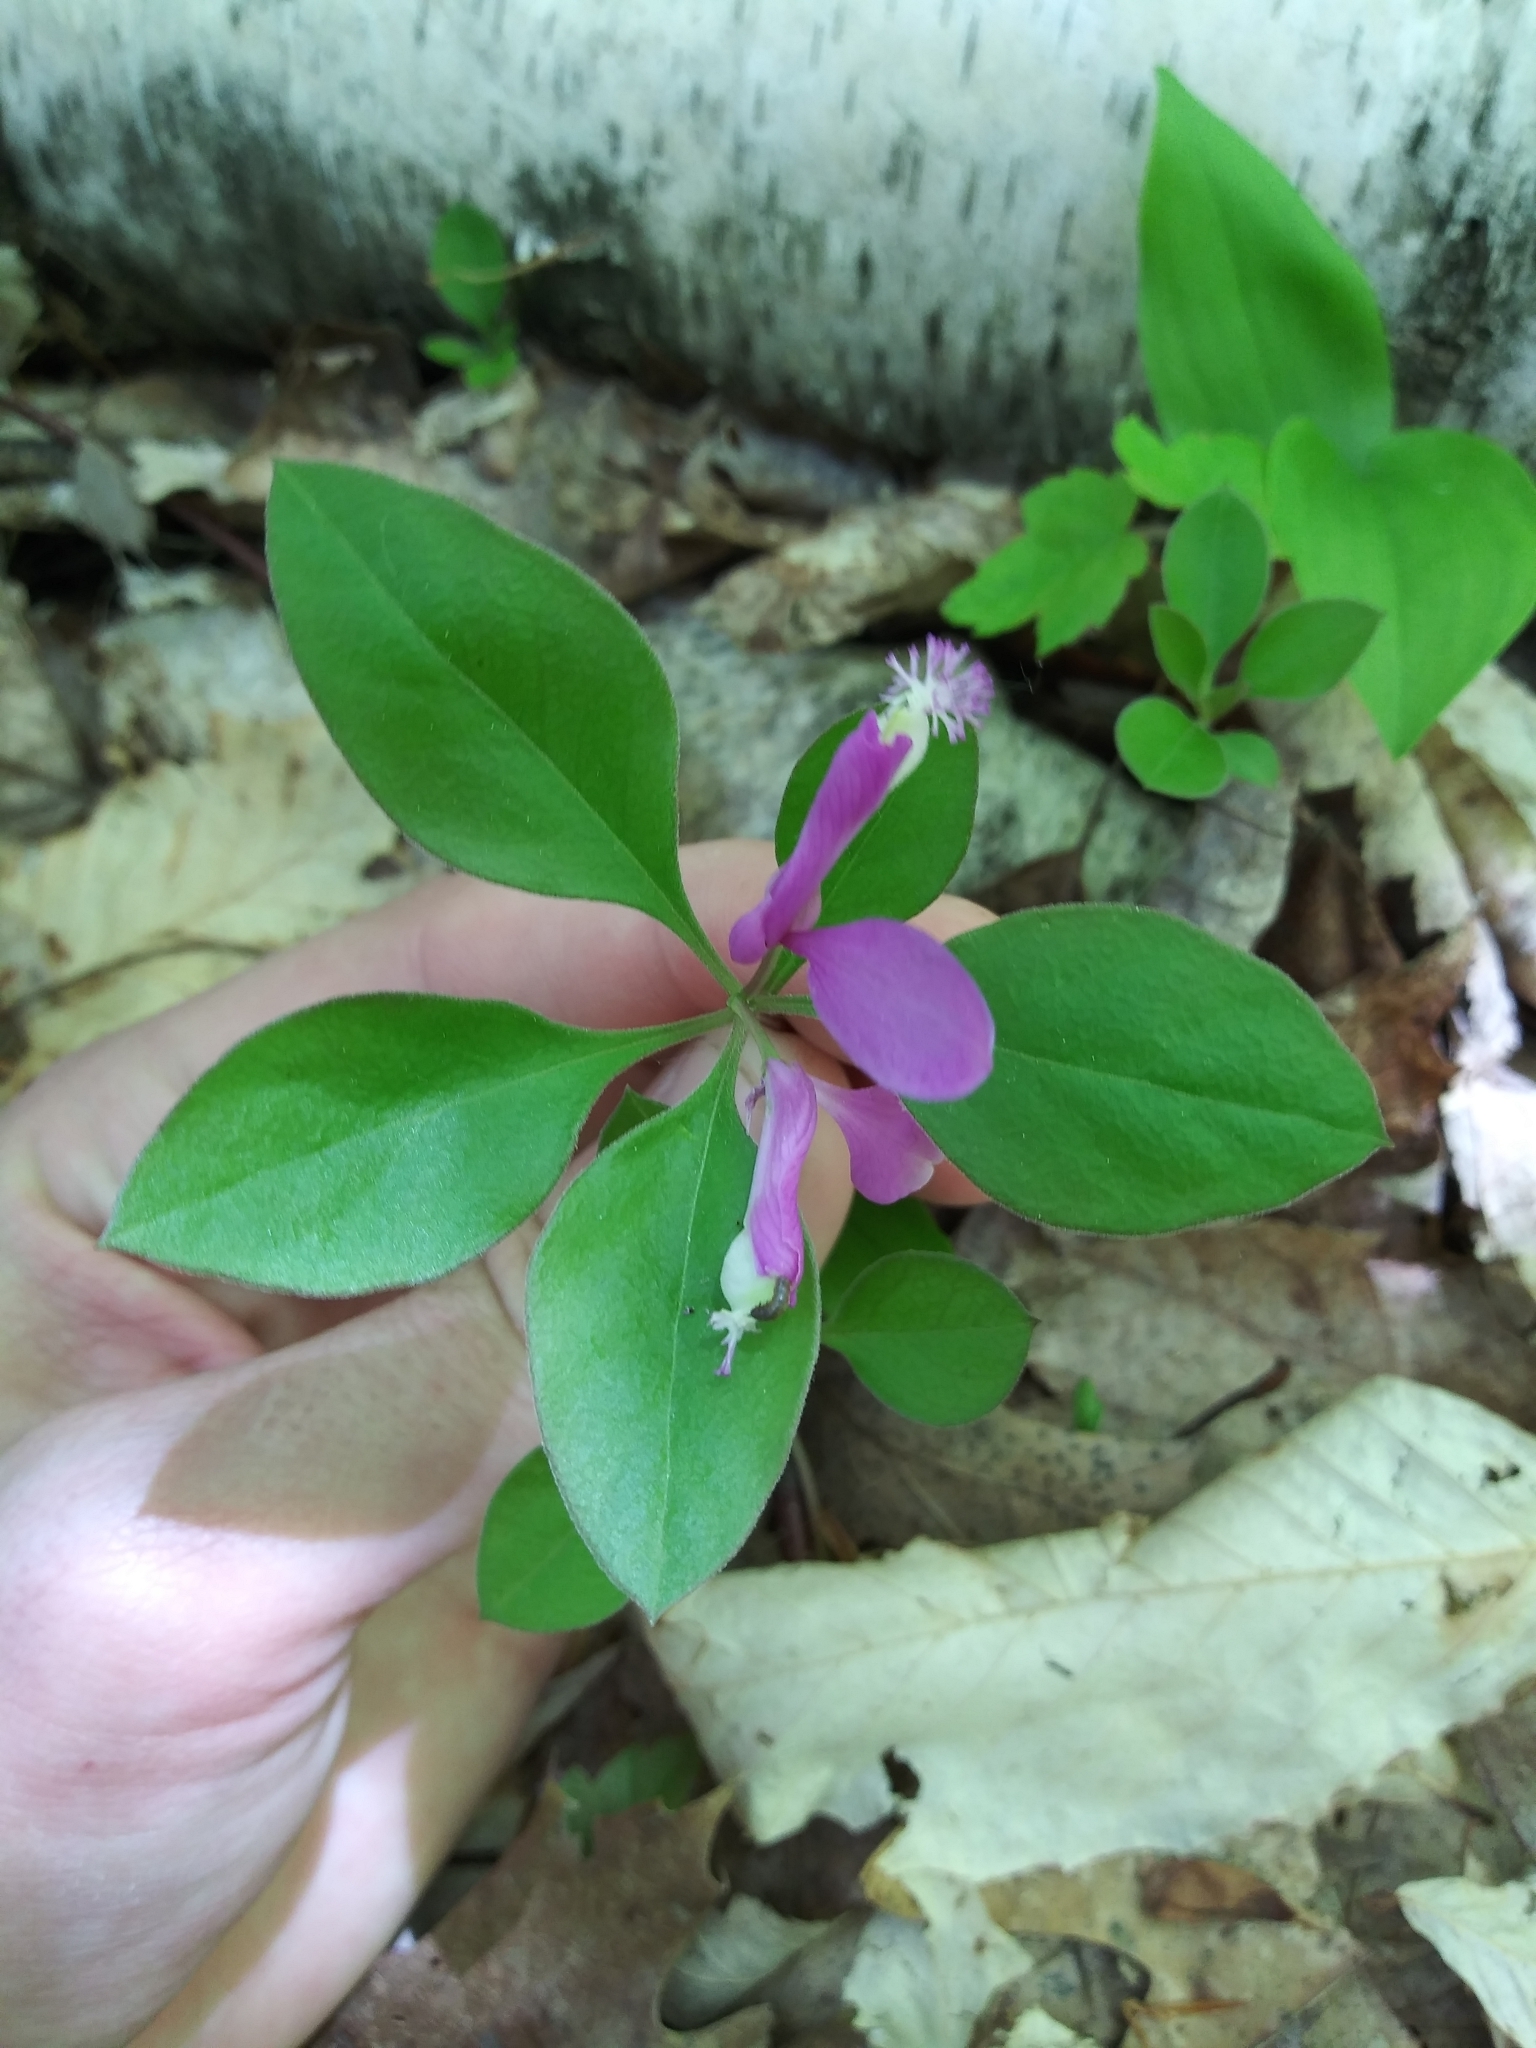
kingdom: Plantae
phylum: Tracheophyta
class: Magnoliopsida
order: Fabales
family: Polygalaceae
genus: Polygaloides
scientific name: Polygaloides paucifolia
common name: Bird-on-the-wing
